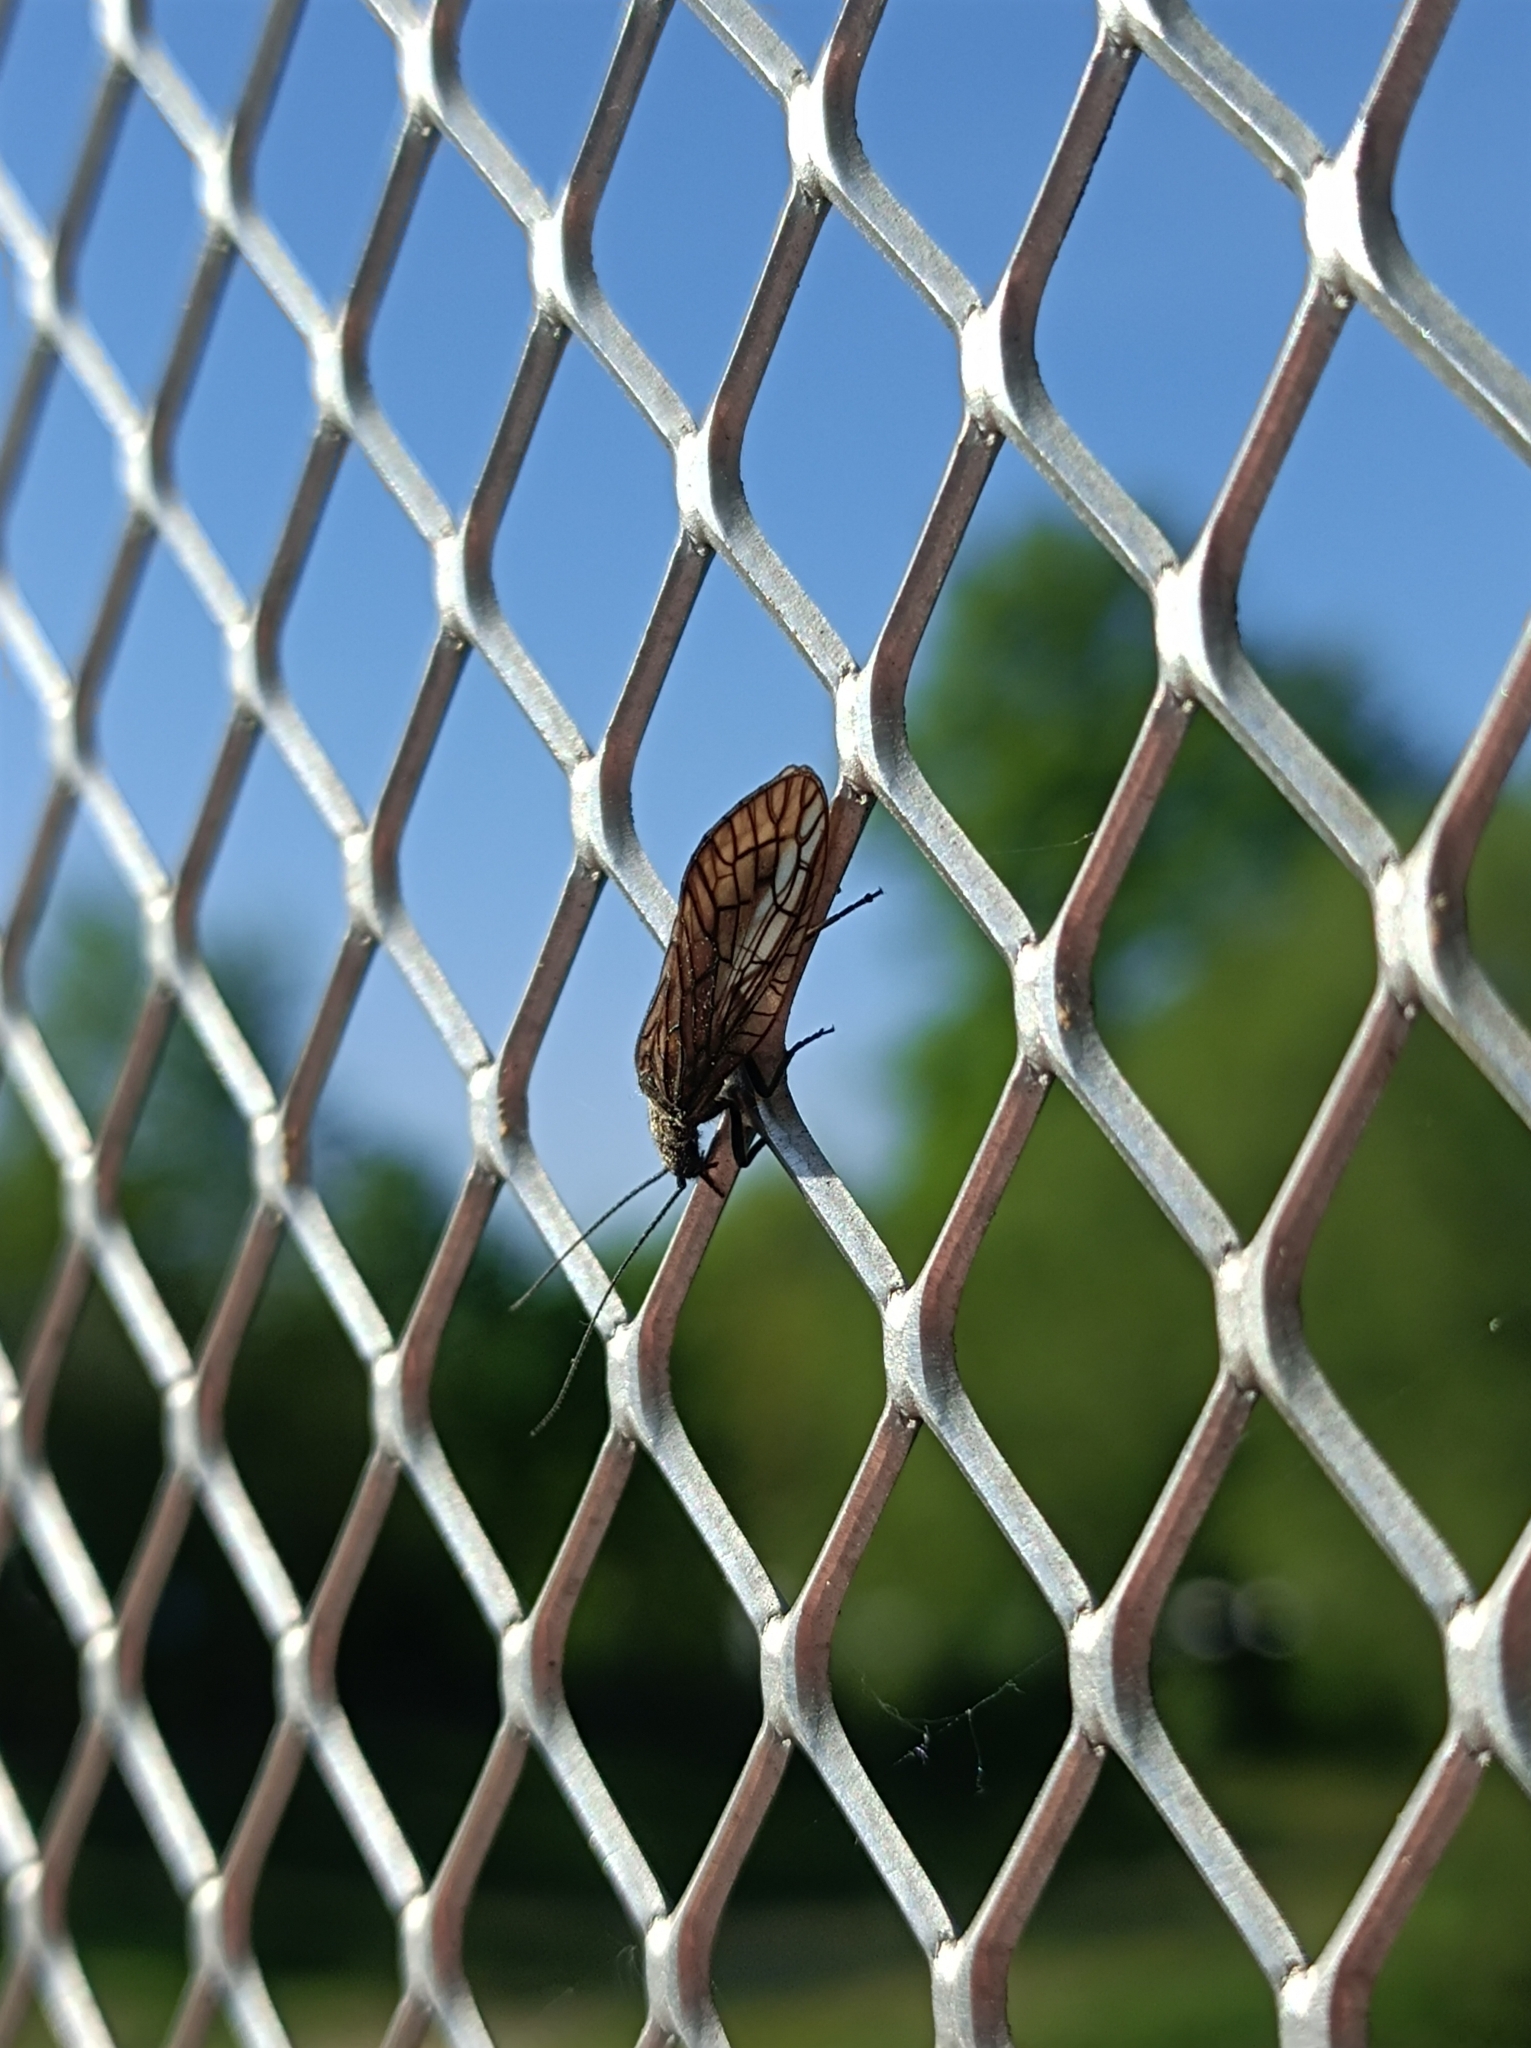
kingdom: Animalia
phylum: Arthropoda
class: Insecta
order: Megaloptera
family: Sialidae
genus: Sialis
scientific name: Sialis
